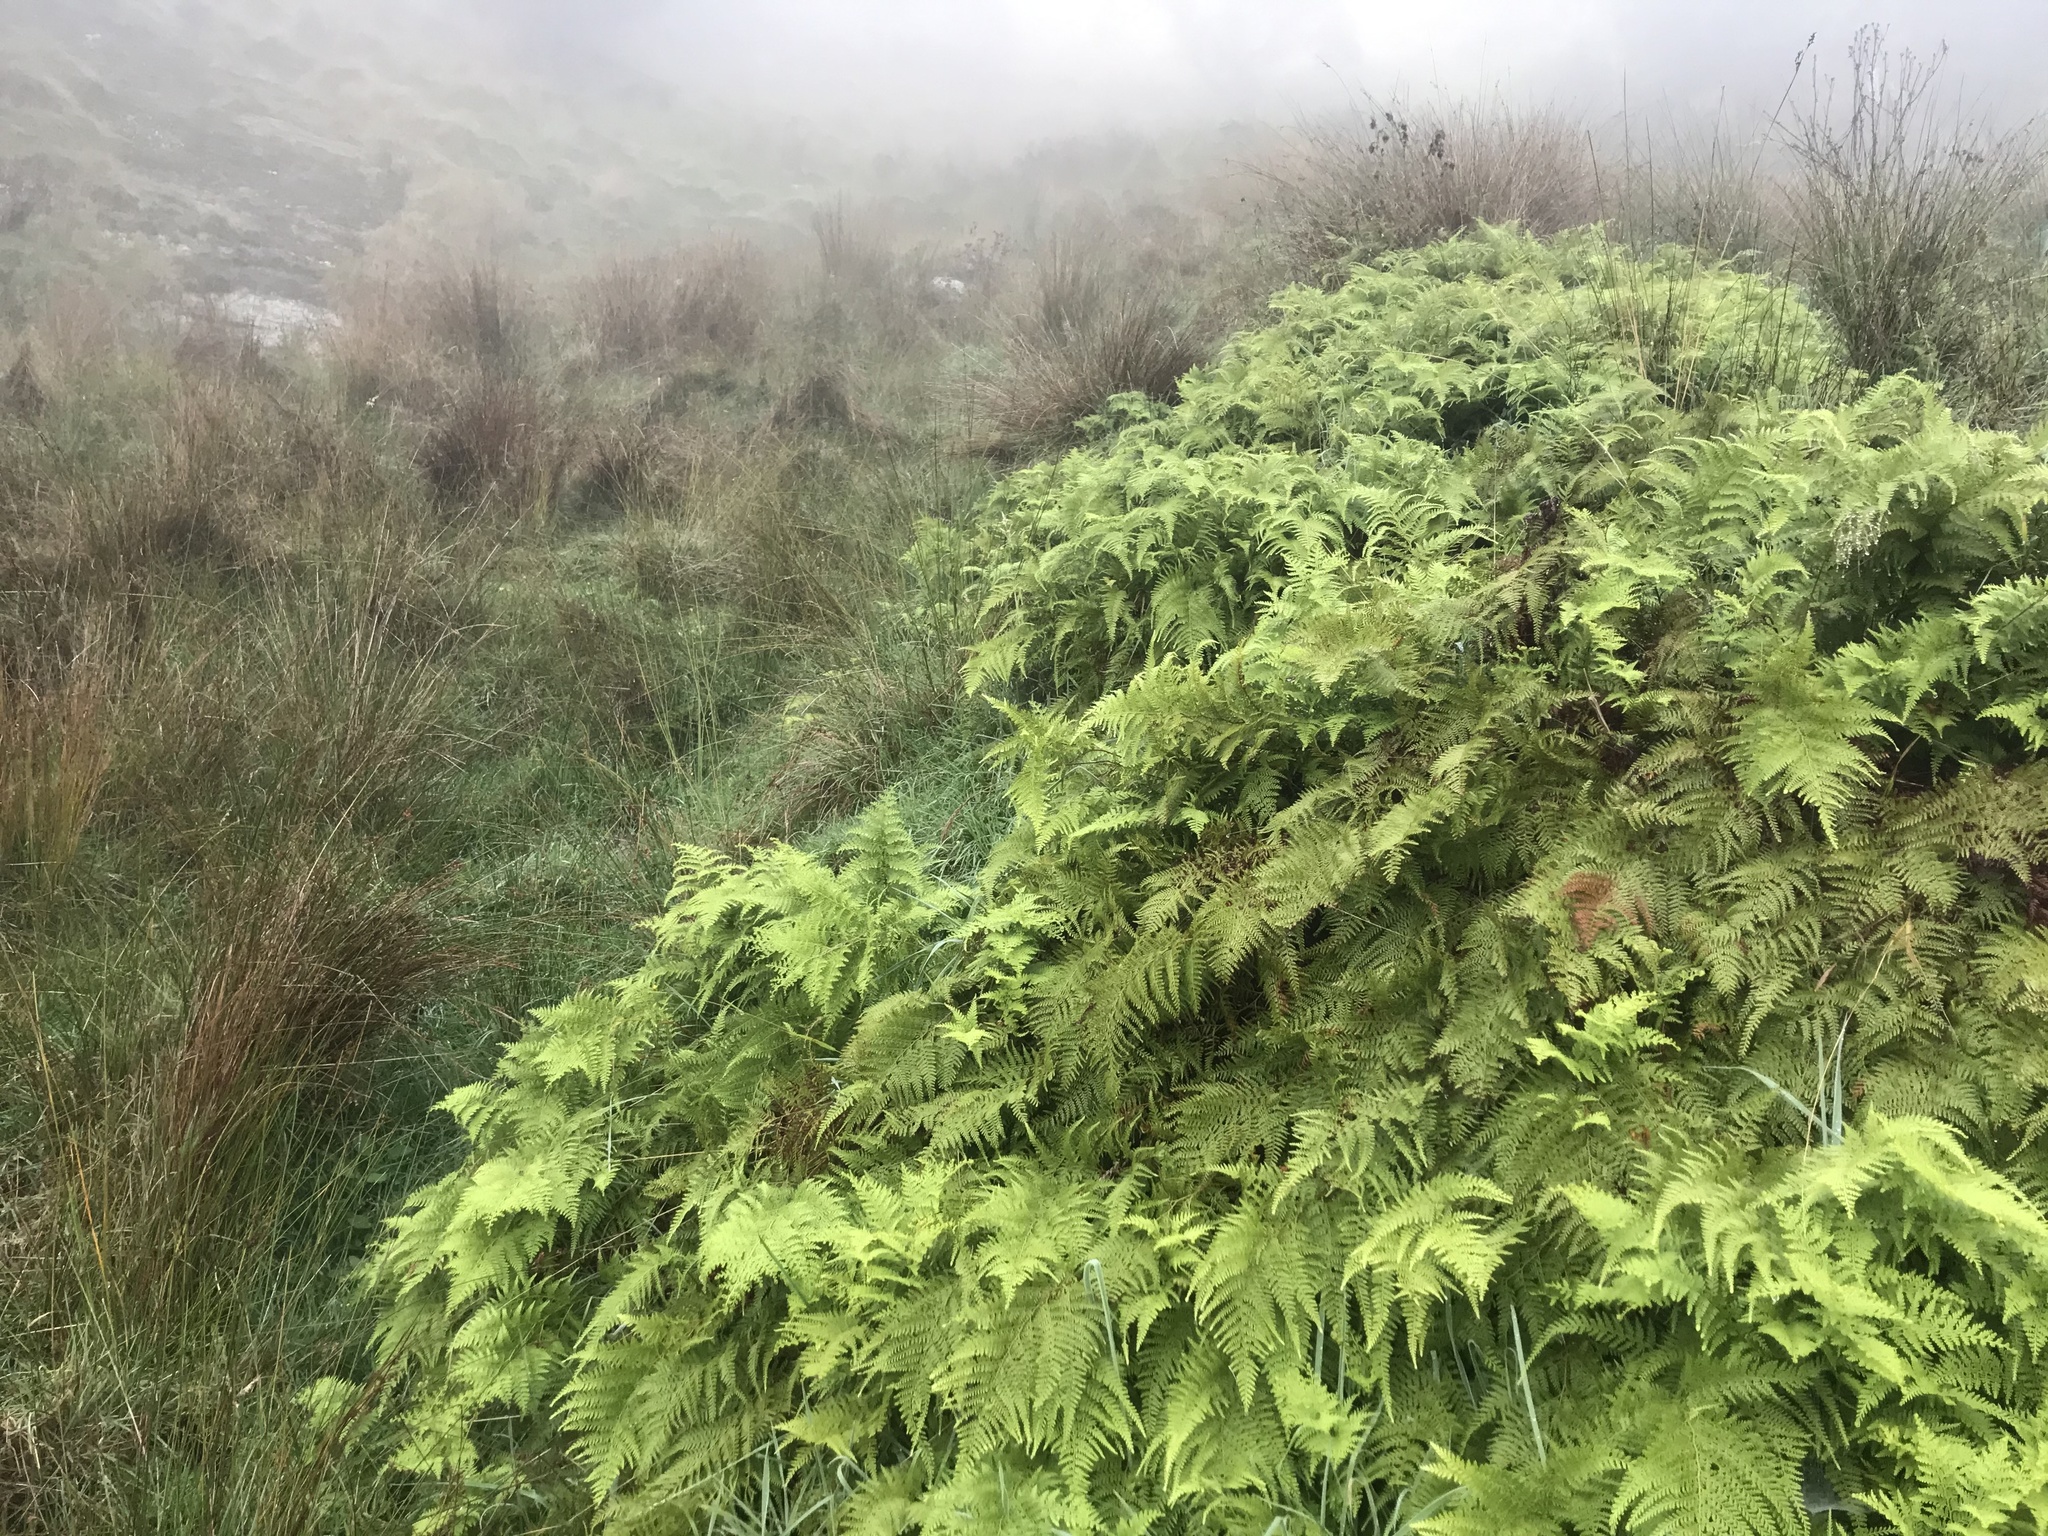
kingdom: Plantae
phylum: Tracheophyta
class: Polypodiopsida
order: Polypodiales
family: Dennstaedtiaceae
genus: Paesia
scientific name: Paesia scaberula
